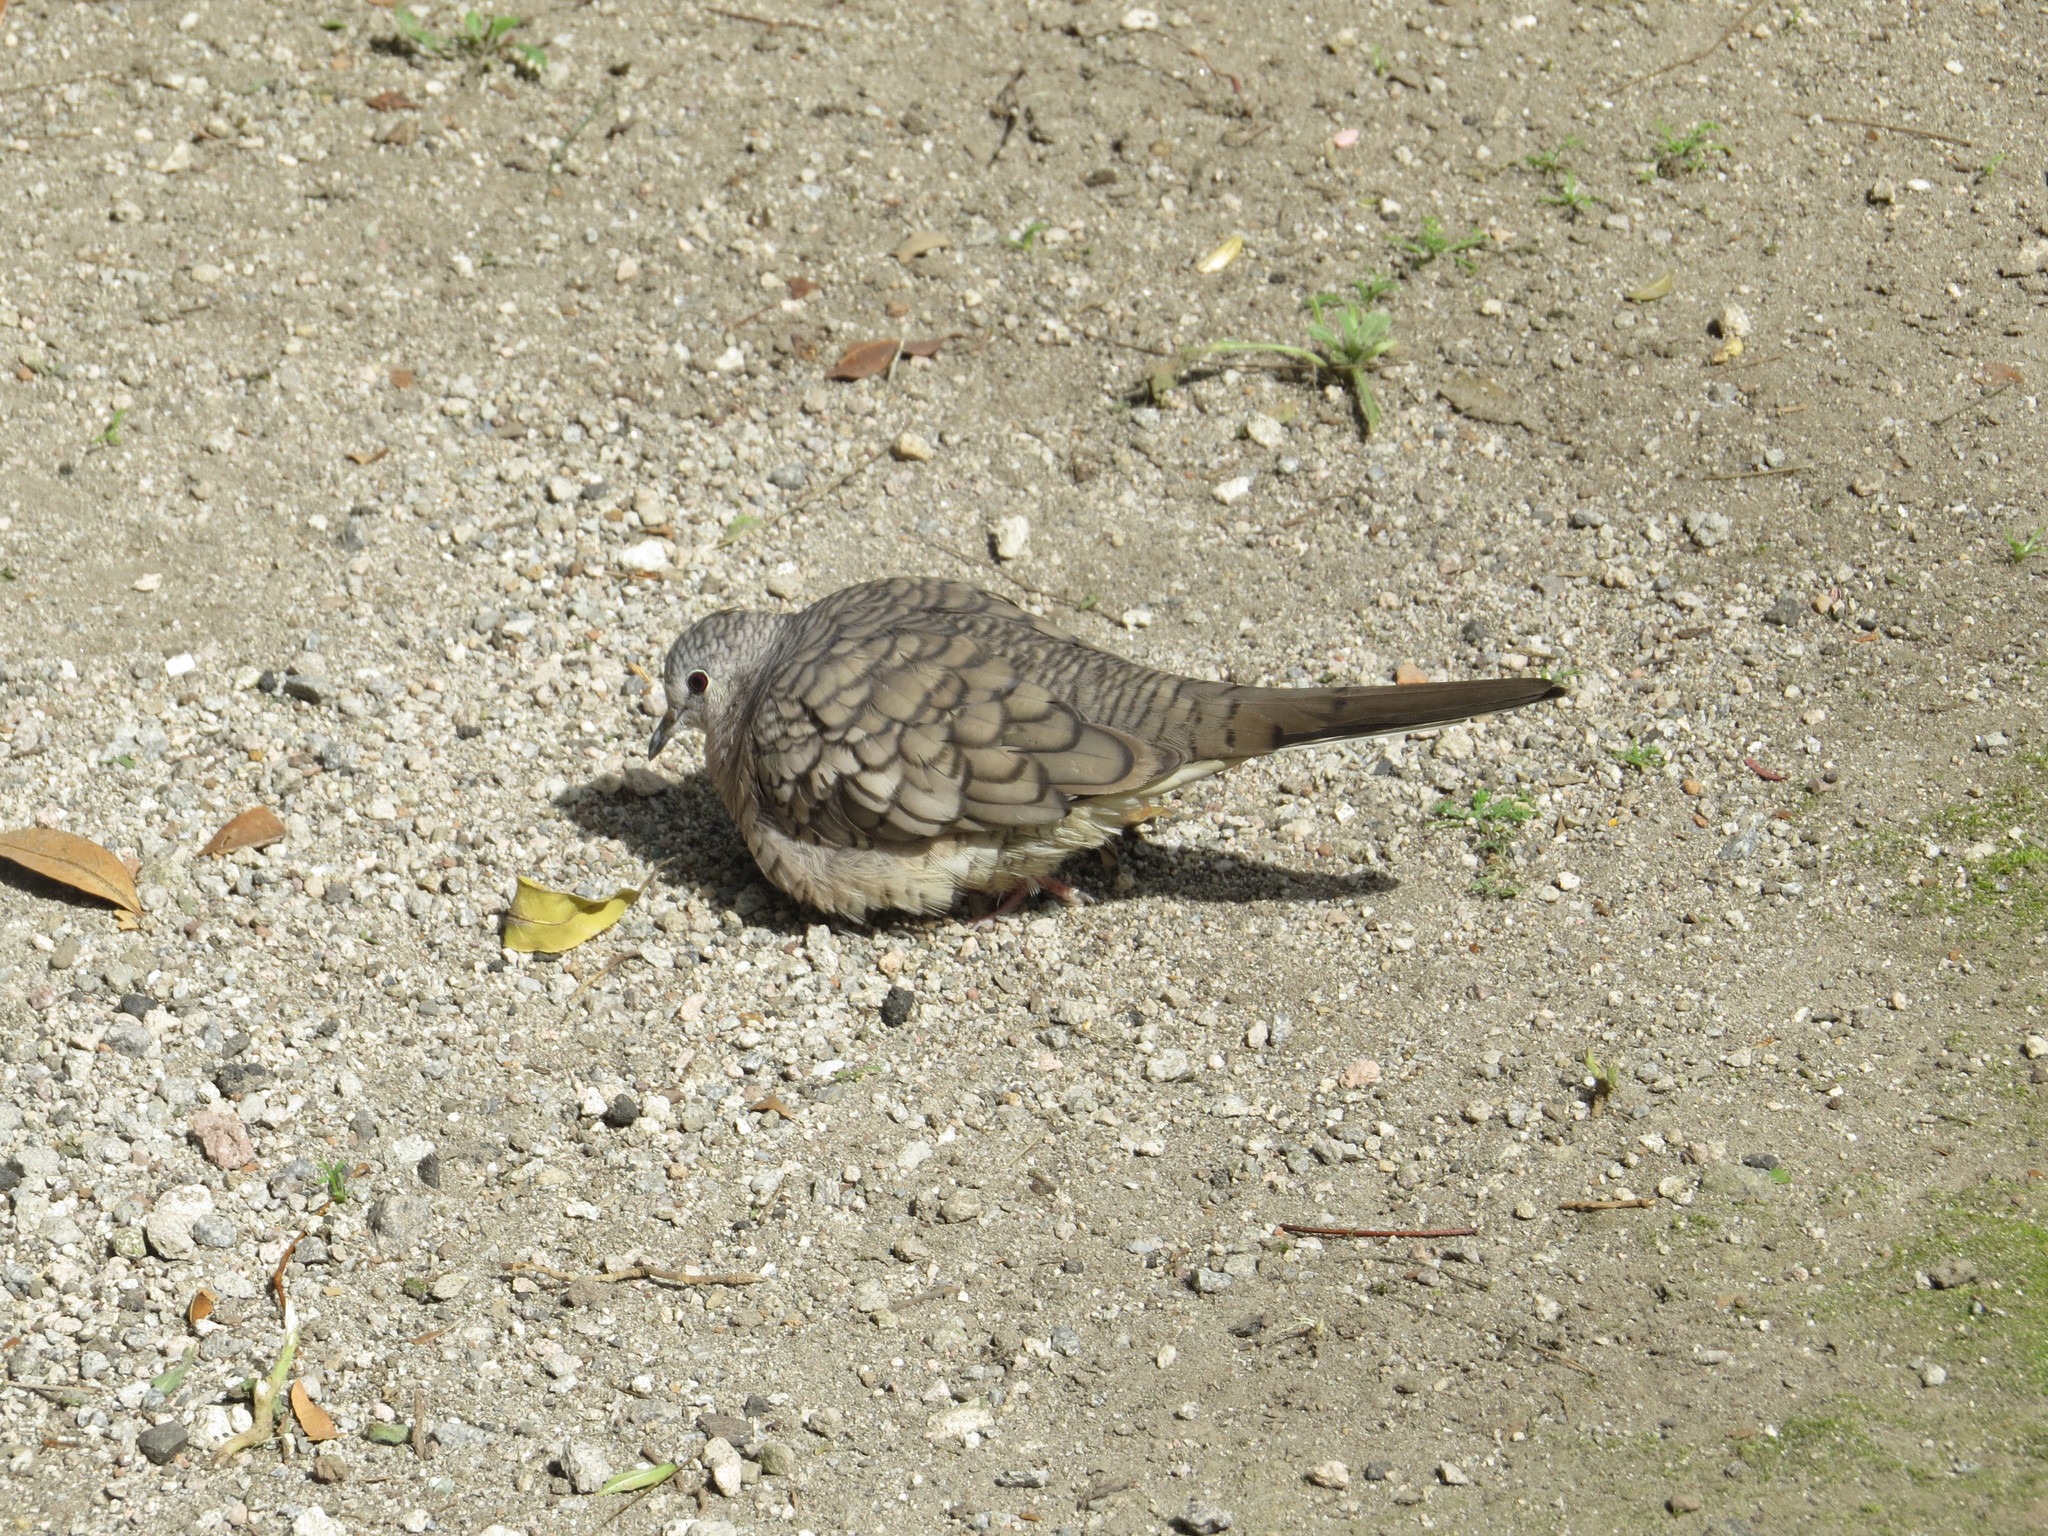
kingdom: Animalia
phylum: Chordata
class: Aves
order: Columbiformes
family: Columbidae
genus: Columbina
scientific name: Columbina inca
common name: Inca dove
